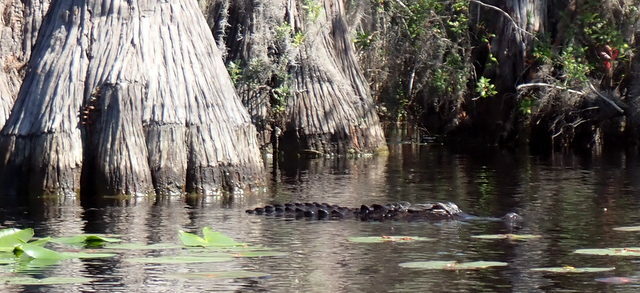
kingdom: Animalia
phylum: Chordata
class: Crocodylia
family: Alligatoridae
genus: Alligator
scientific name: Alligator mississippiensis
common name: American alligator
